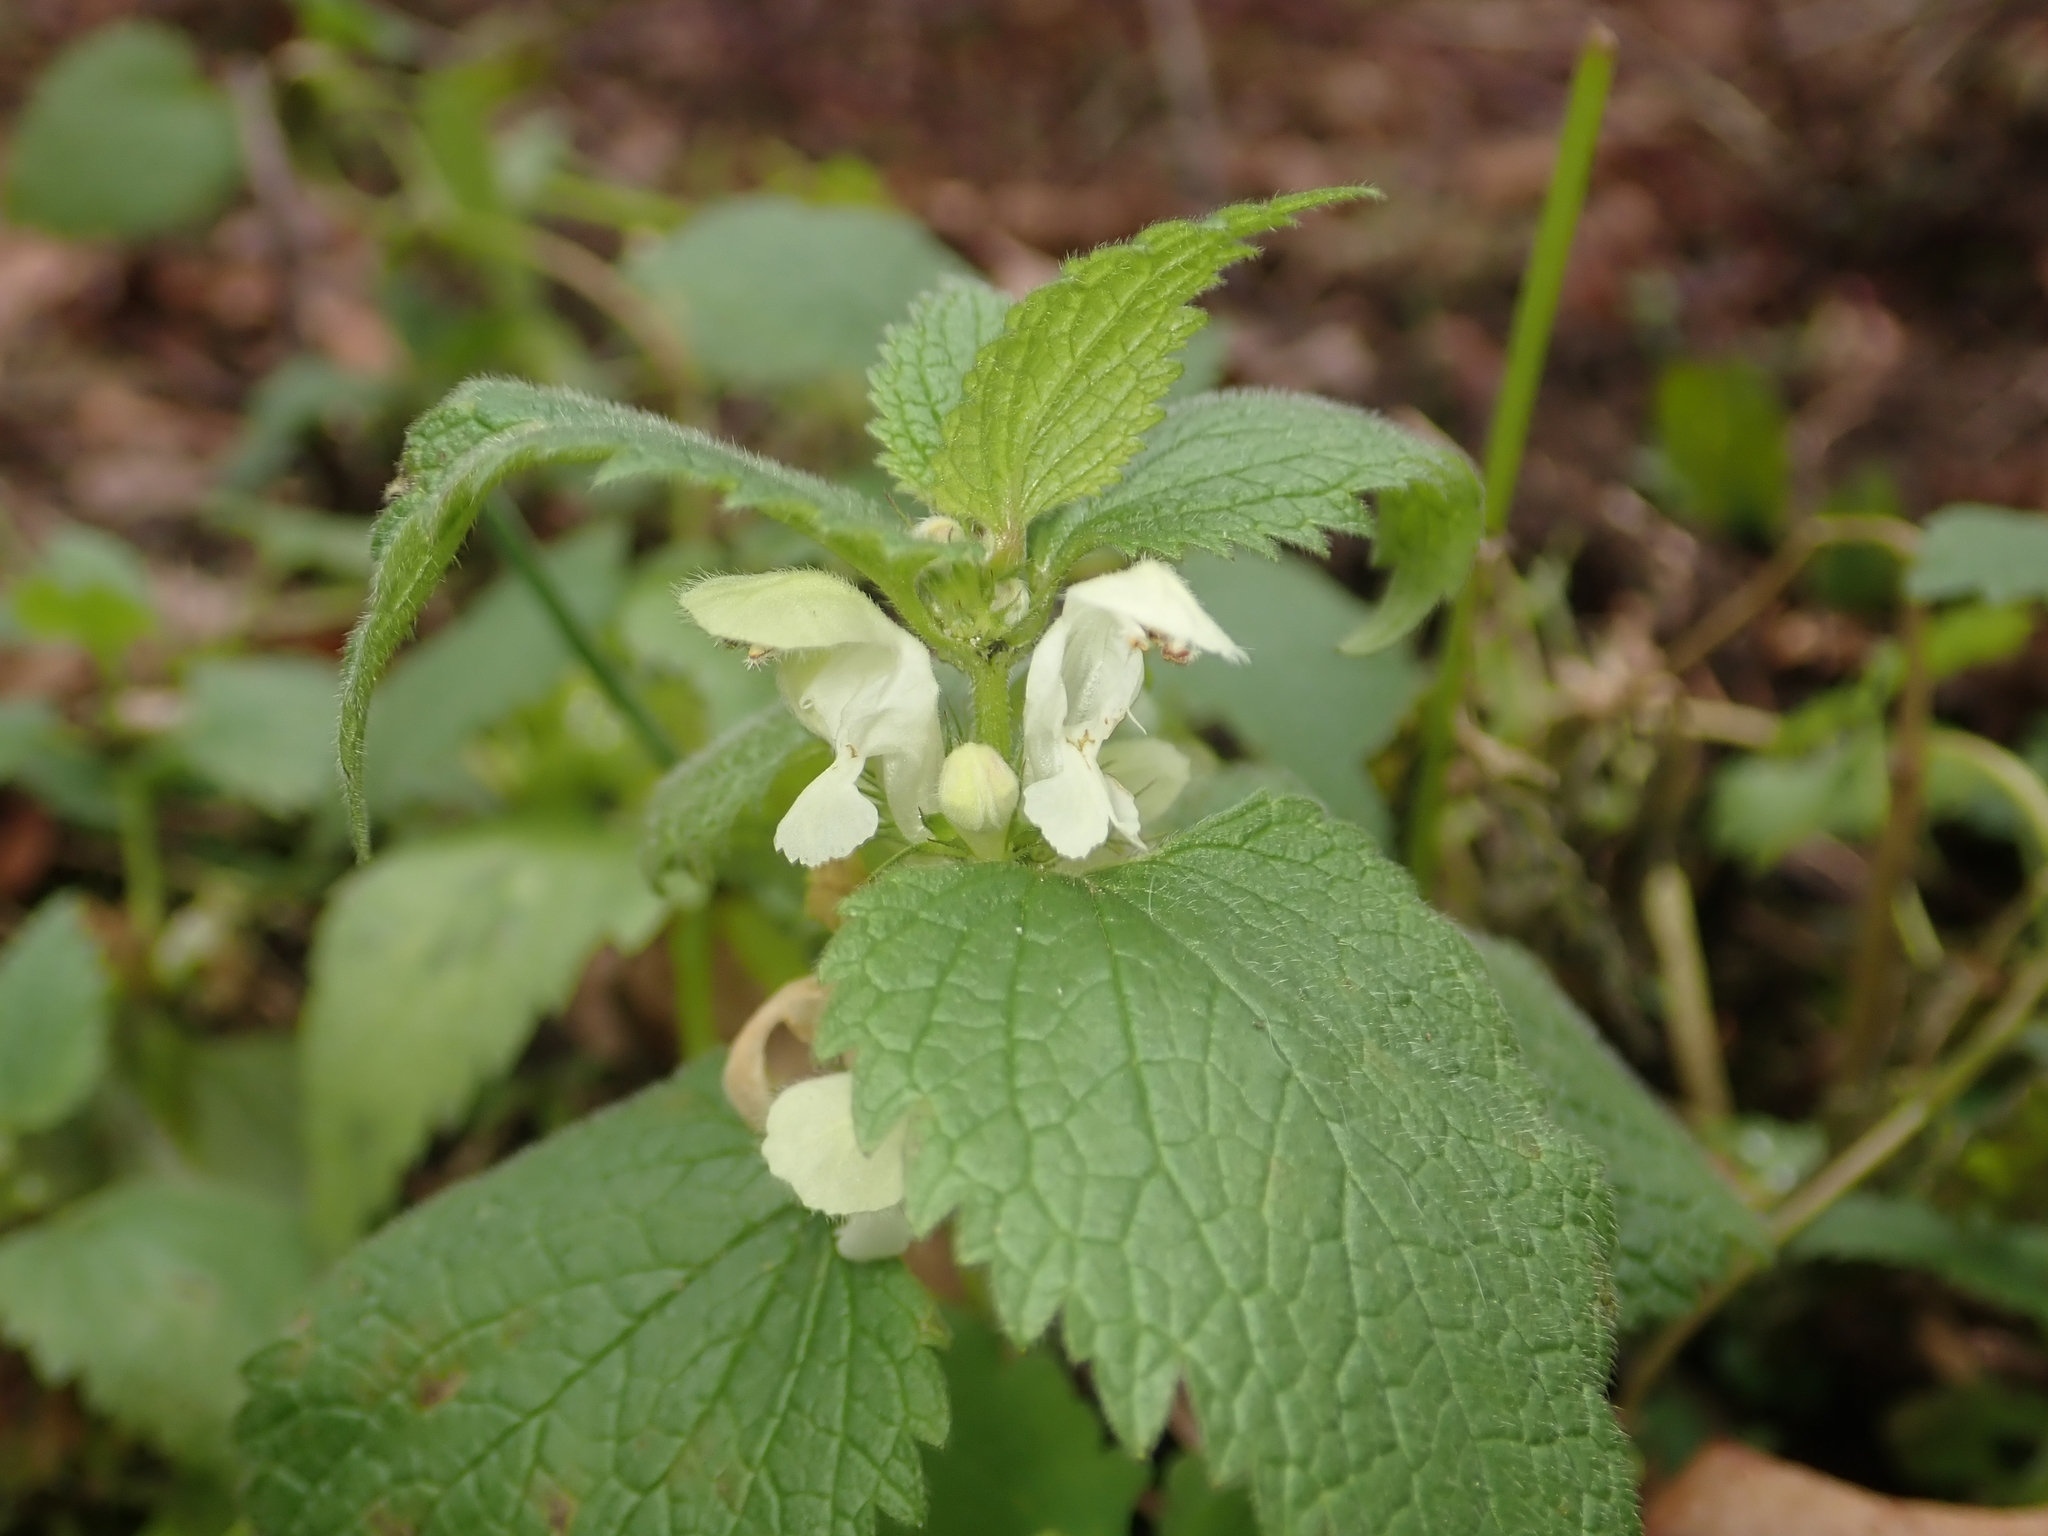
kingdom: Plantae
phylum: Tracheophyta
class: Magnoliopsida
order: Lamiales
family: Lamiaceae
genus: Lamium
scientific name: Lamium album
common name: White dead-nettle
